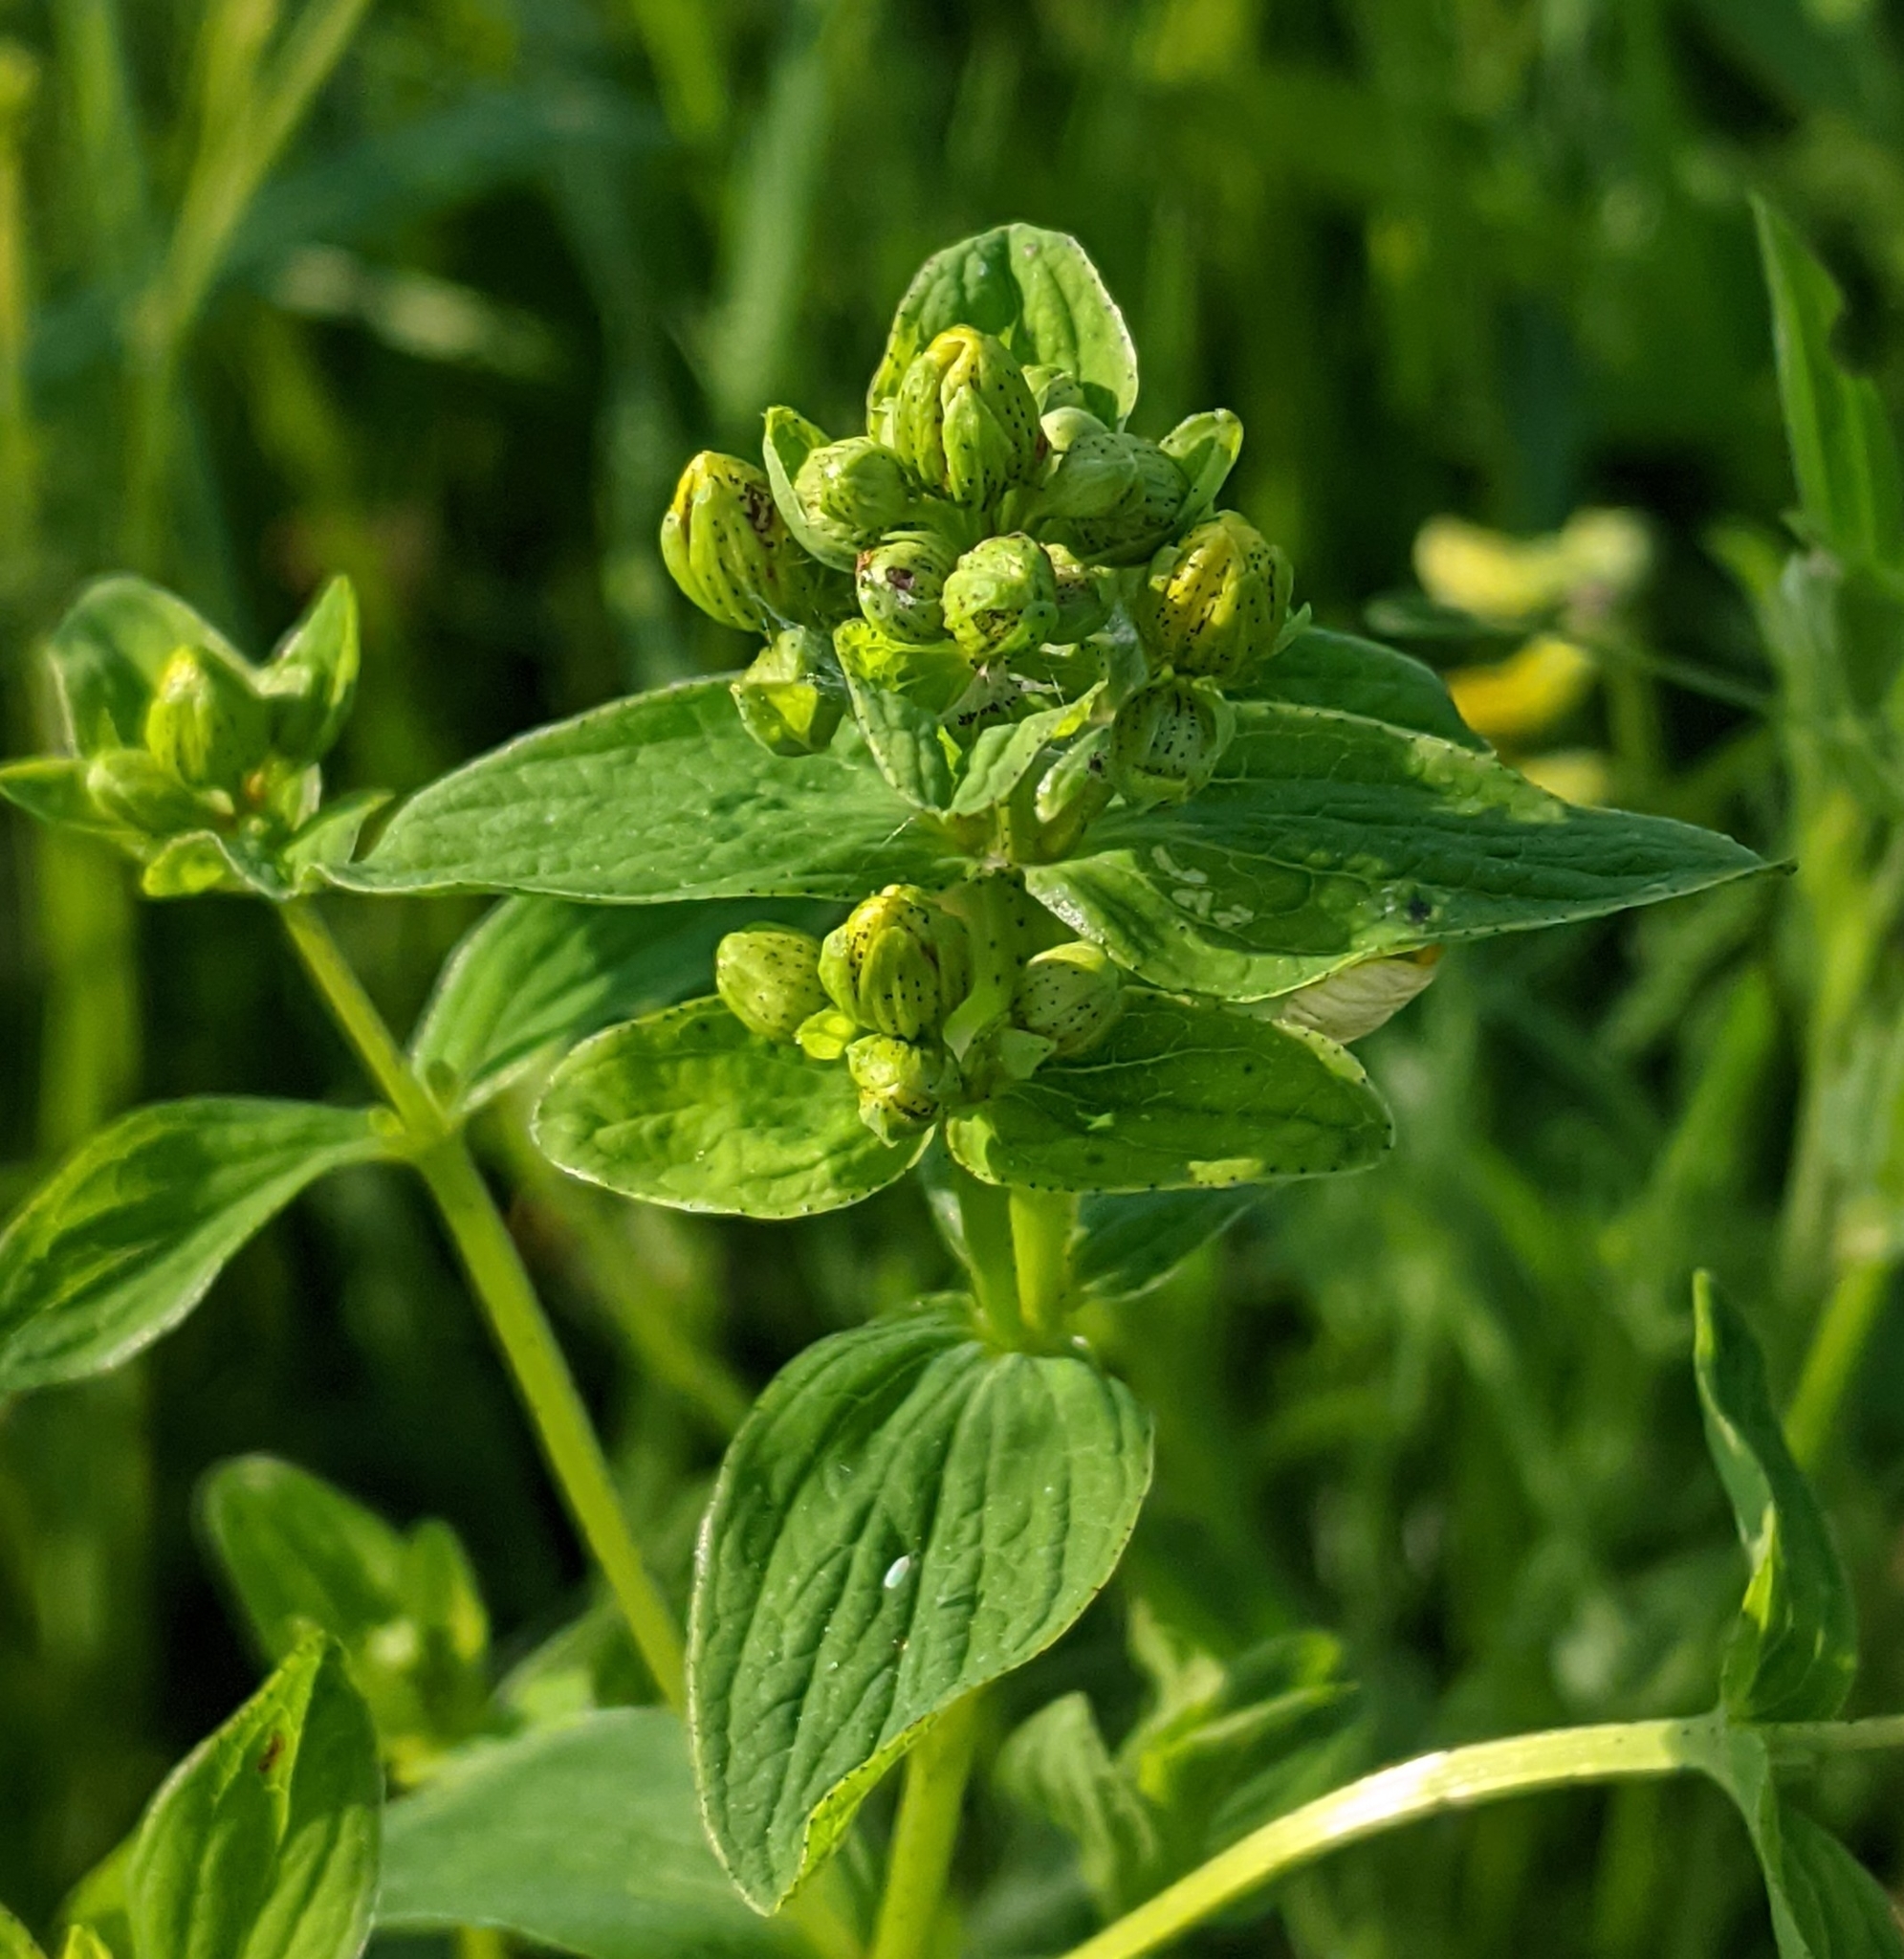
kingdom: Plantae
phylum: Tracheophyta
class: Magnoliopsida
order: Malpighiales
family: Hypericaceae
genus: Hypericum
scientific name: Hypericum maculatum
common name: Imperforate st. john's-wort
